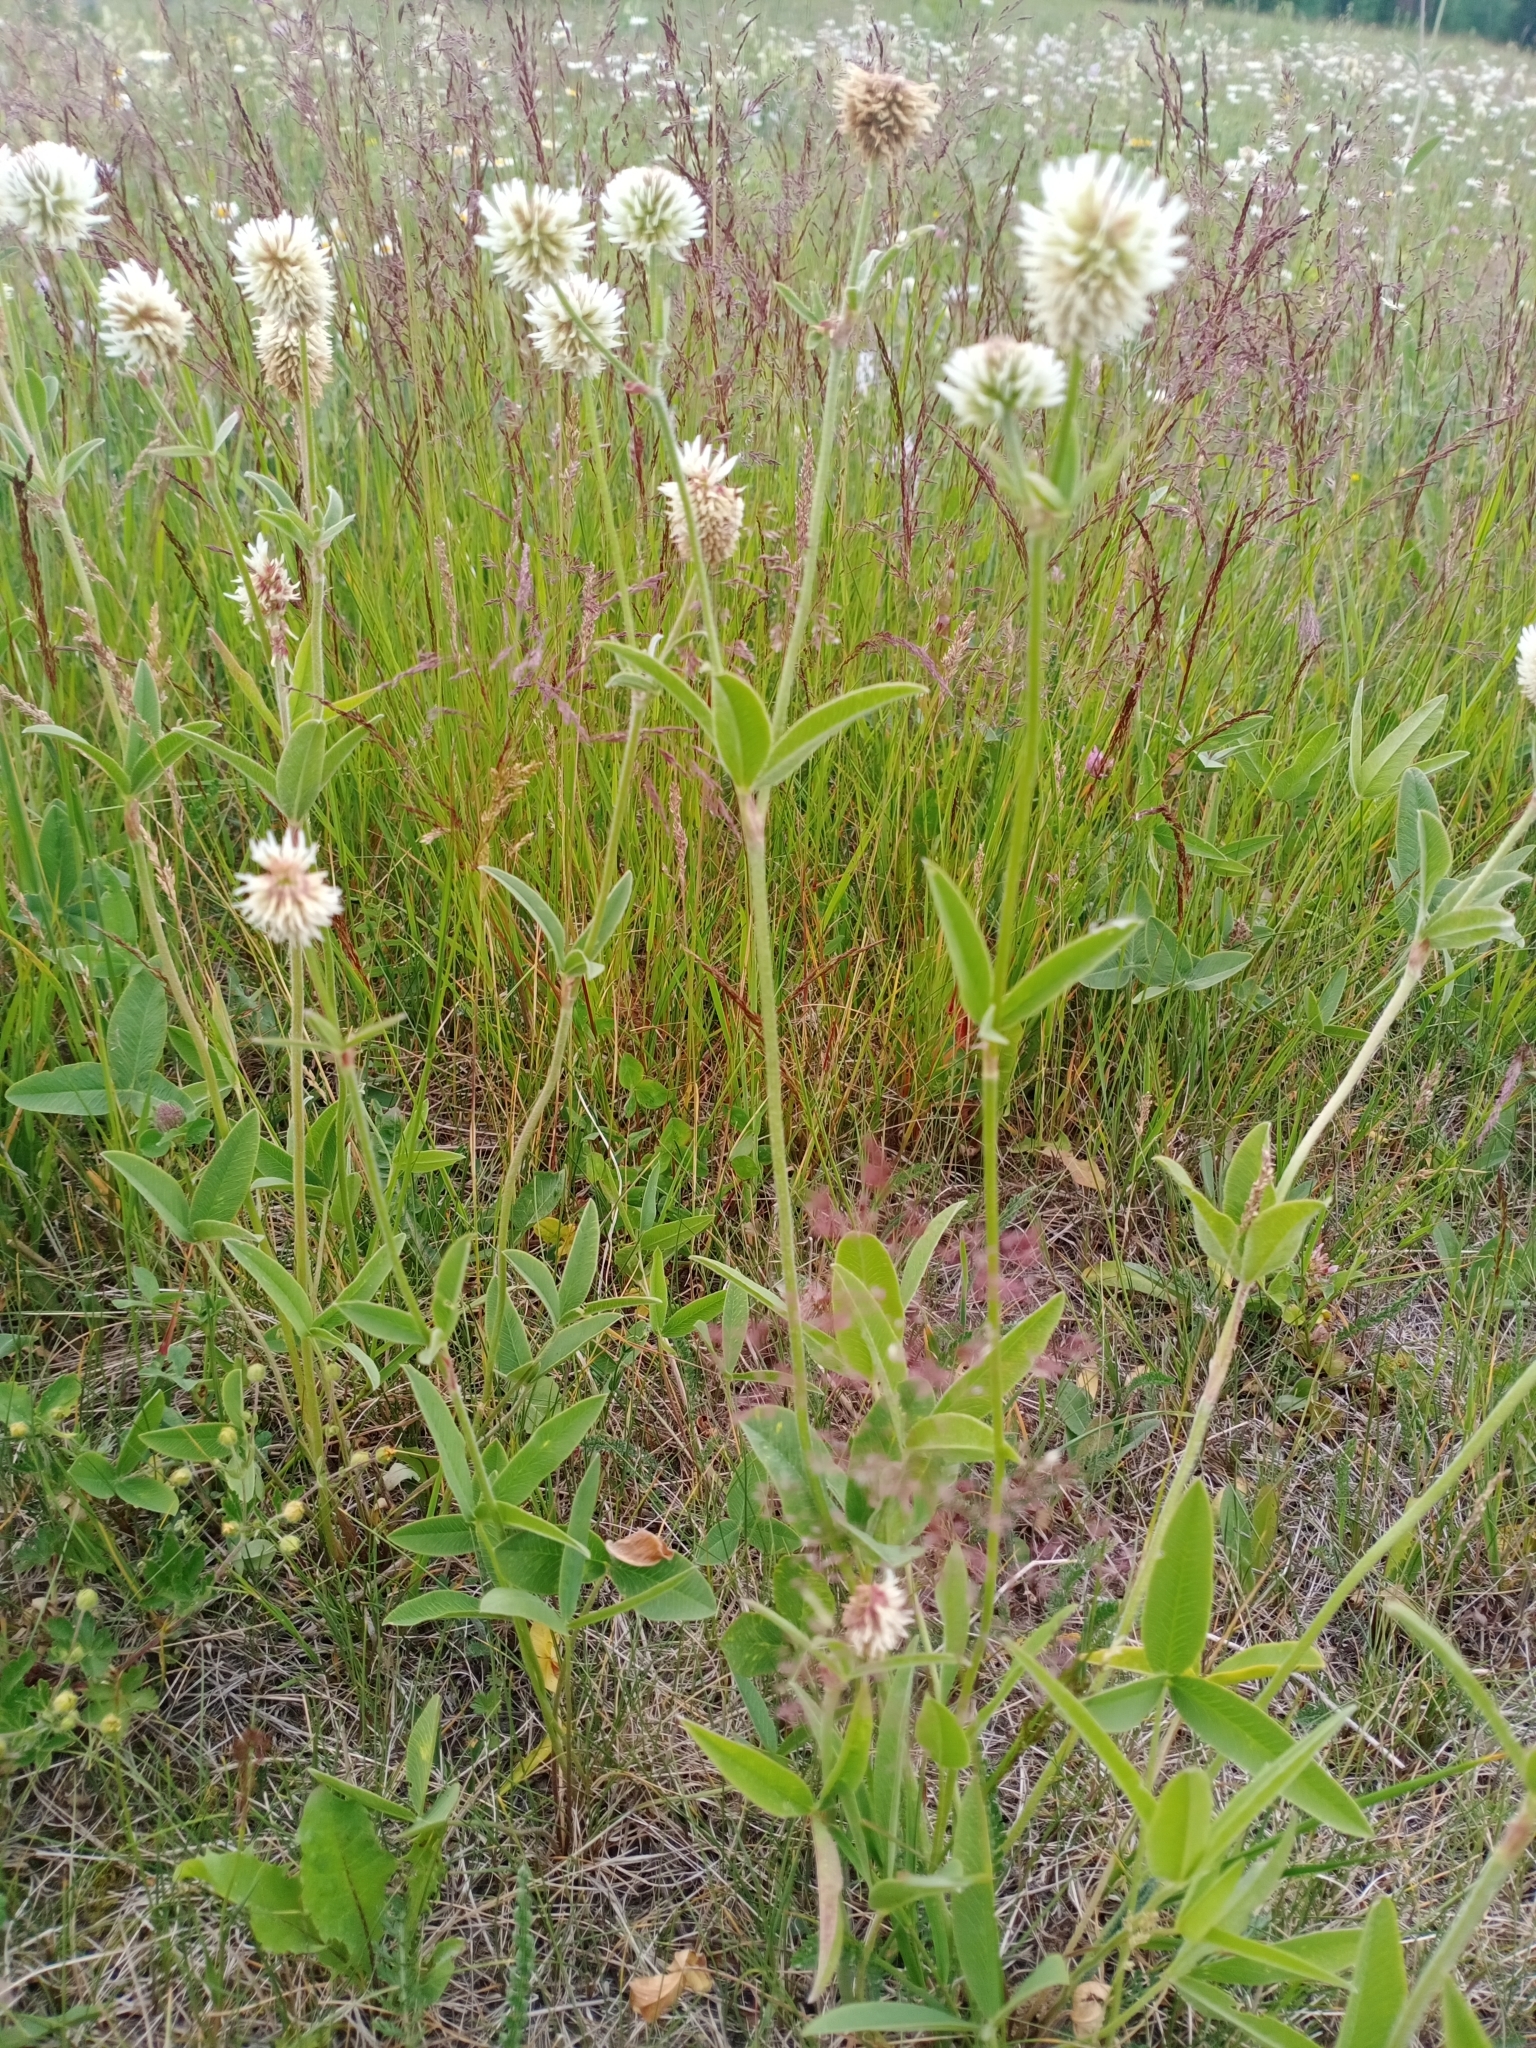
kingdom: Plantae
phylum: Tracheophyta
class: Magnoliopsida
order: Fabales
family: Fabaceae
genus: Trifolium
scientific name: Trifolium montanum
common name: Mountain clover
